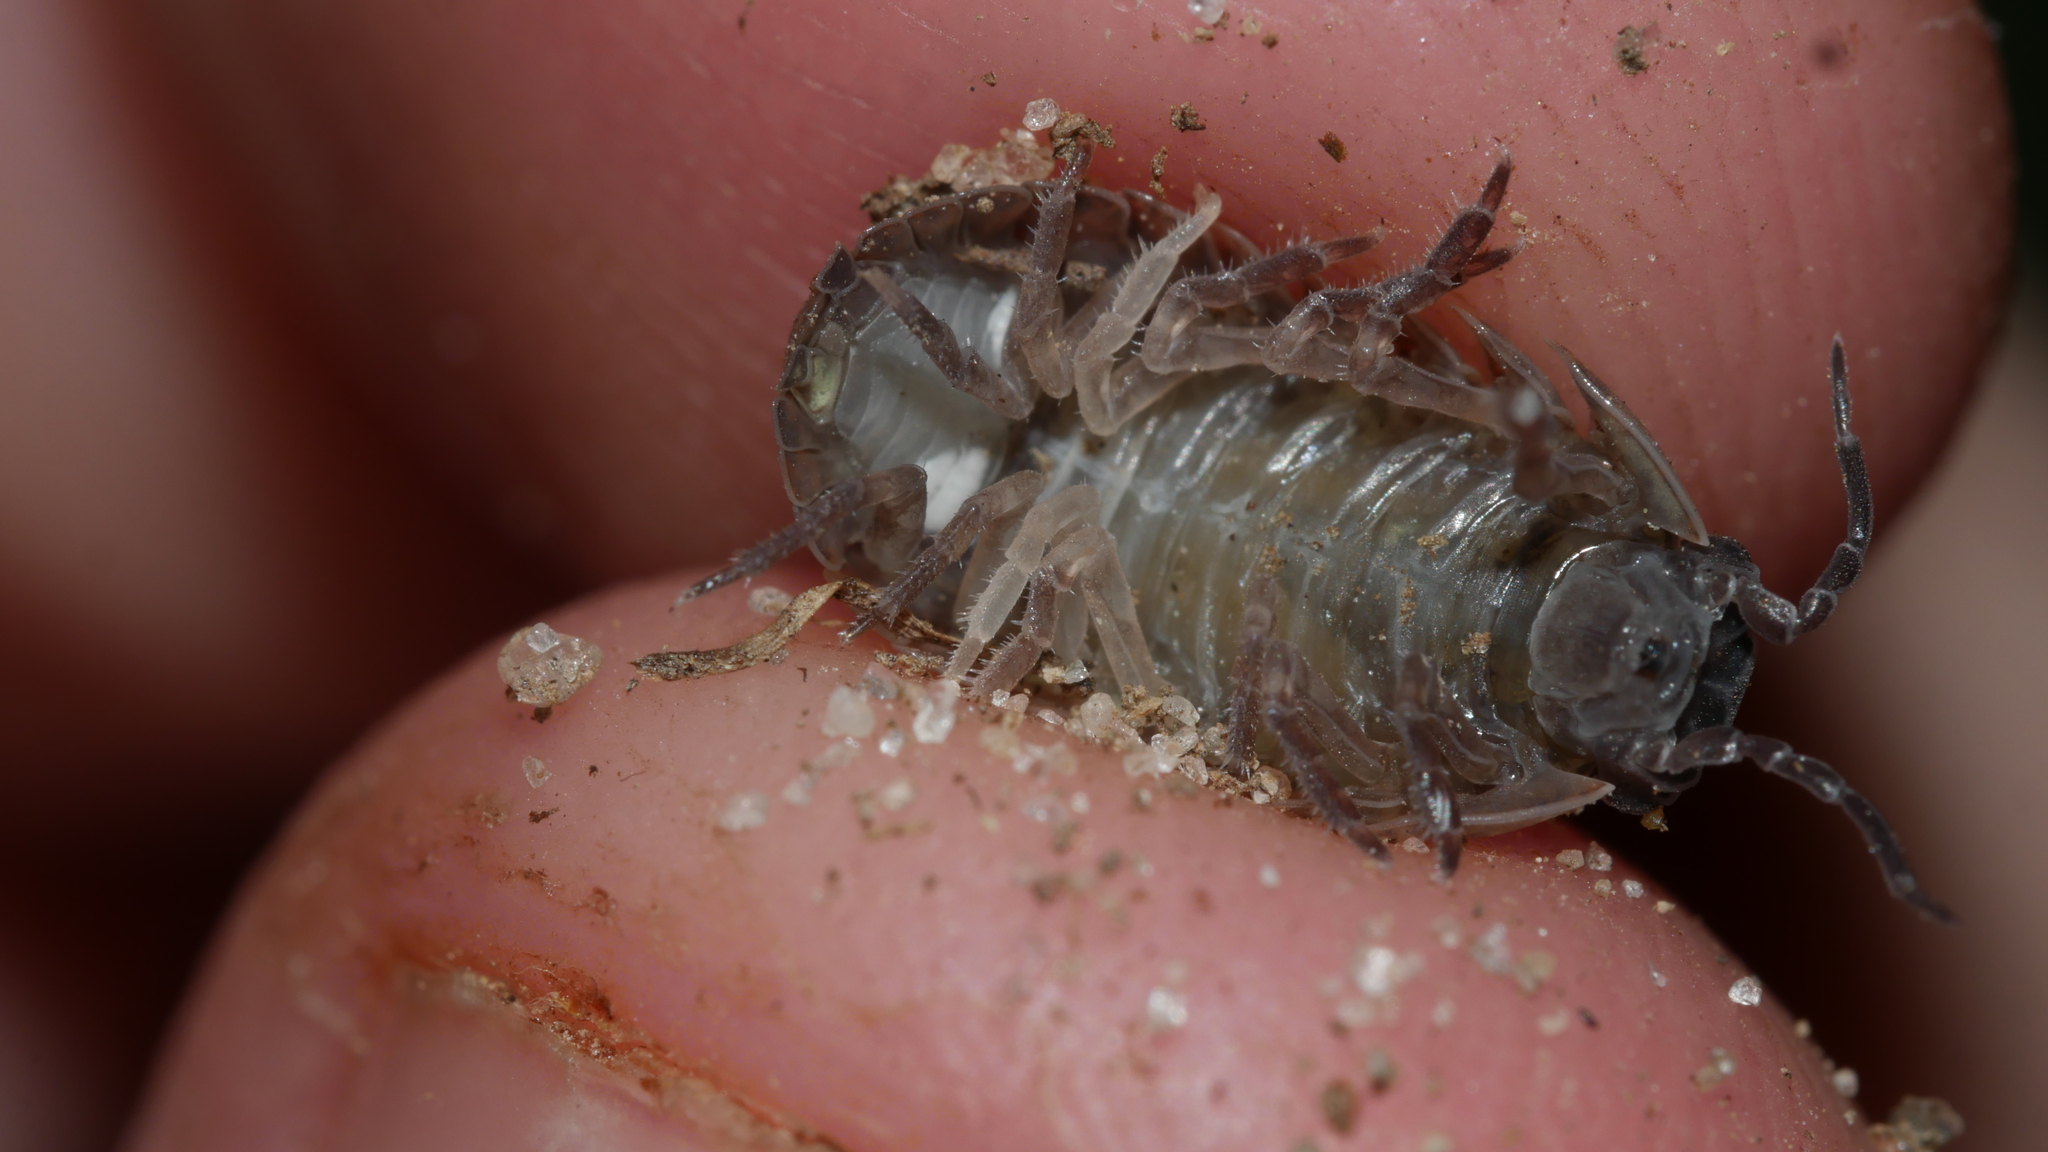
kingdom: Animalia
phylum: Arthropoda
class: Malacostraca
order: Isopoda
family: Armadillidiidae
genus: Armadillidium
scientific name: Armadillidium vulgare
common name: Common pill woodlouse
